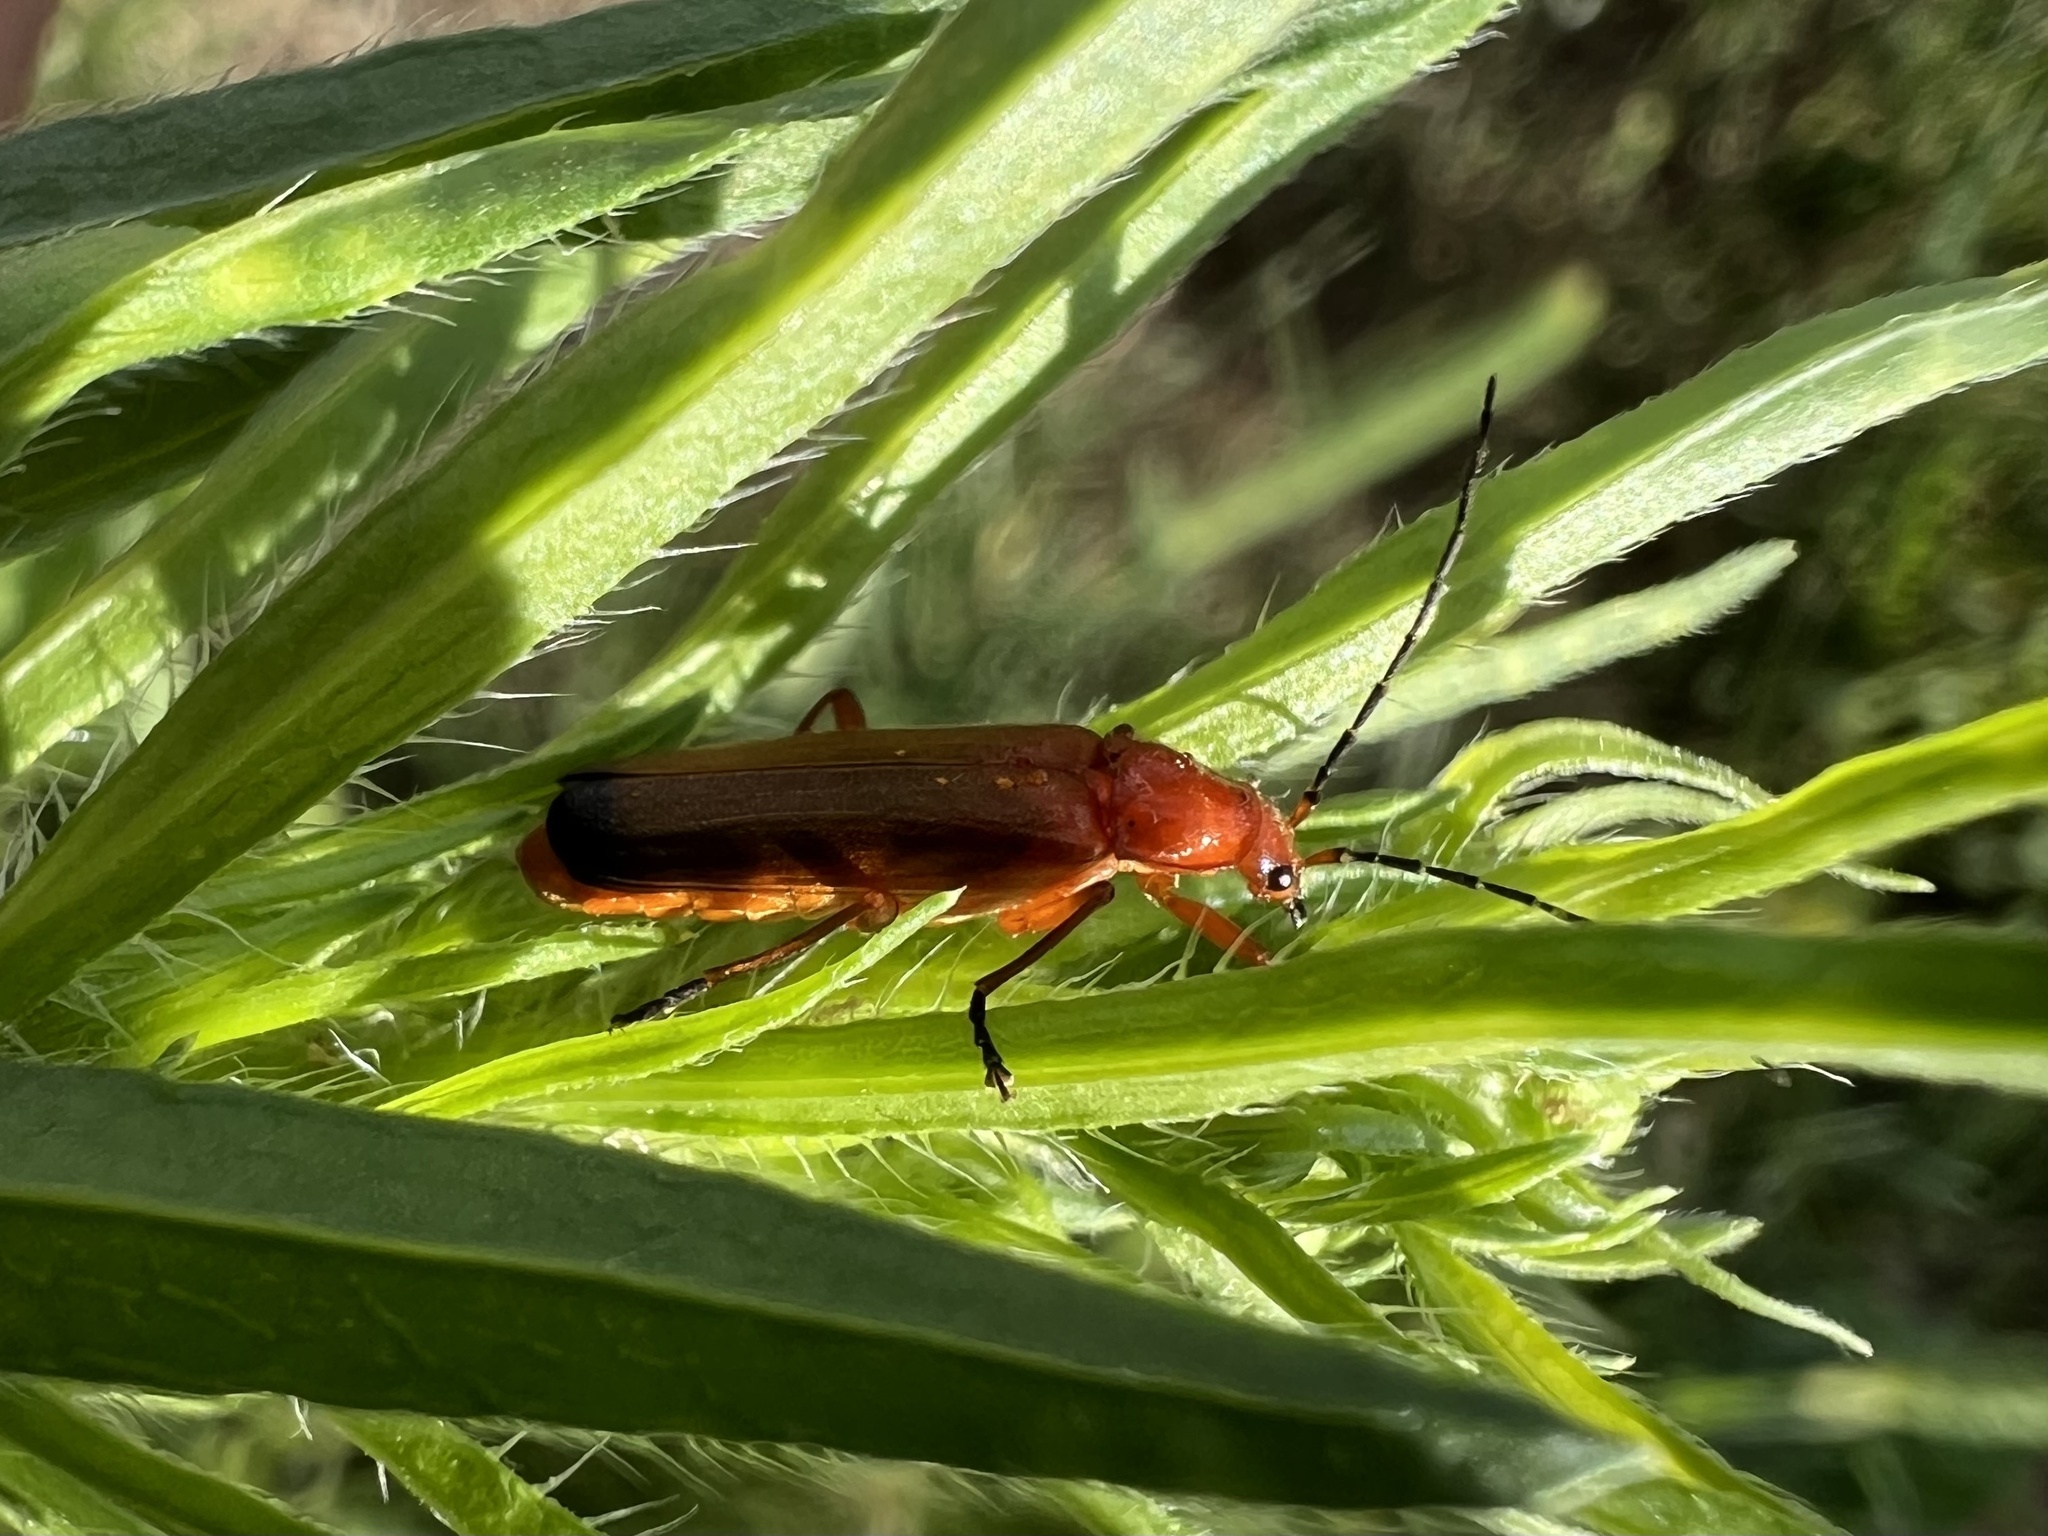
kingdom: Animalia
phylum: Arthropoda
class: Insecta
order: Coleoptera
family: Cantharidae
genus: Rhagonycha
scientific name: Rhagonycha fulva
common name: Common red soldier beetle
